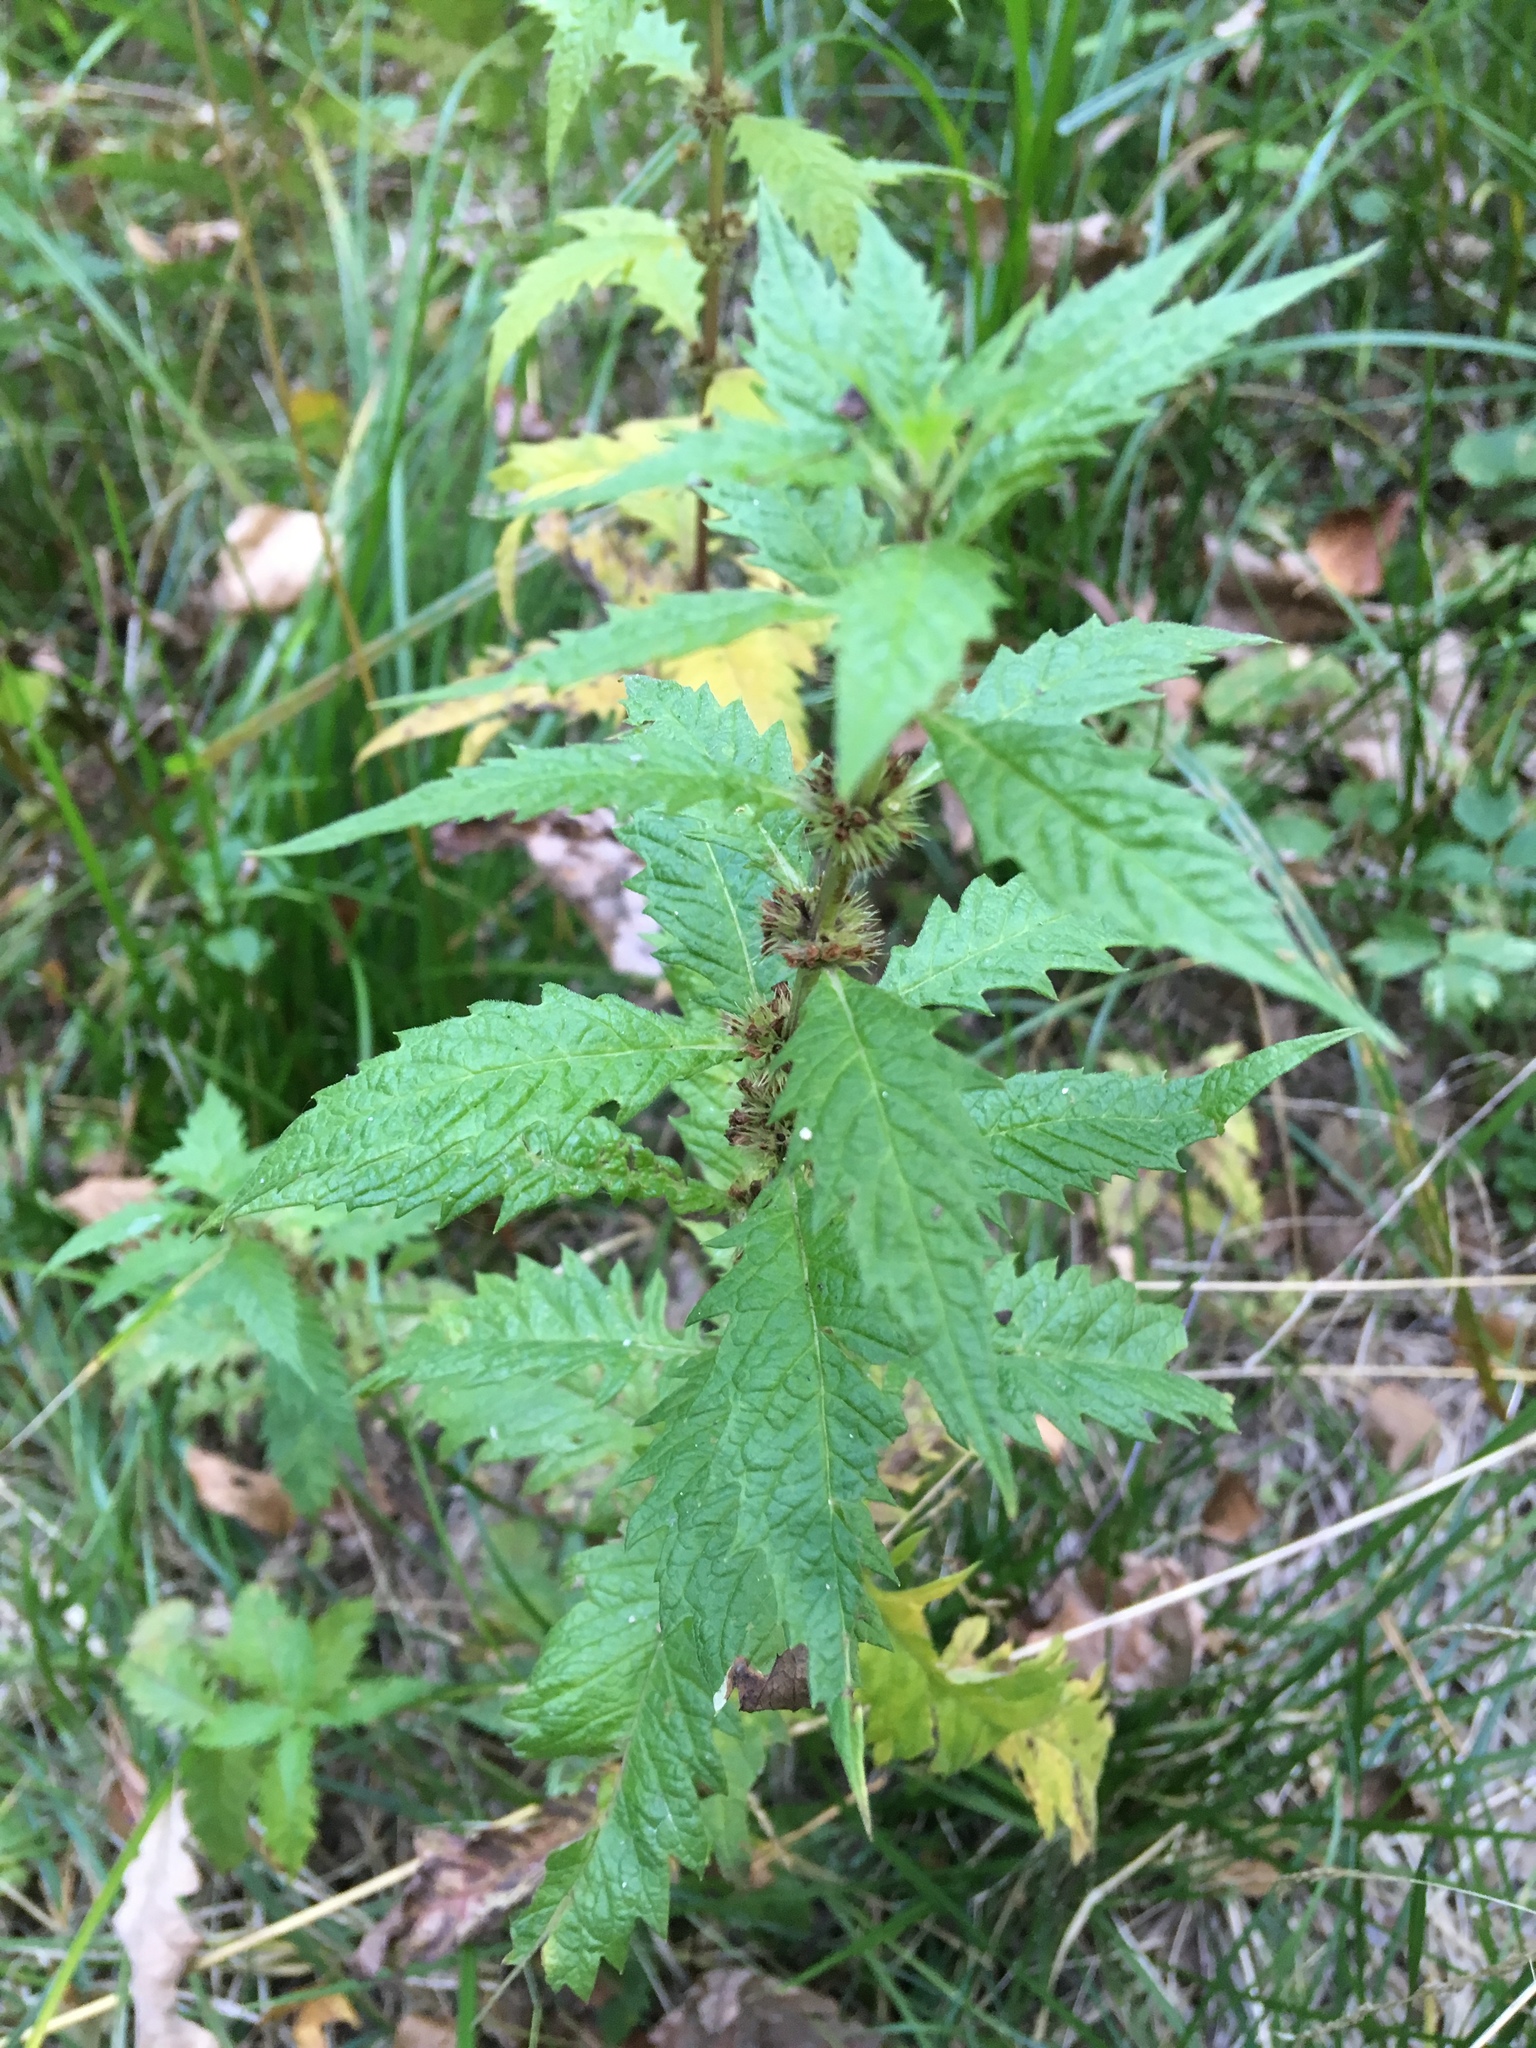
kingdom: Plantae
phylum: Tracheophyta
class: Magnoliopsida
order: Lamiales
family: Lamiaceae
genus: Lycopus
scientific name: Lycopus europaeus
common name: European bugleweed
